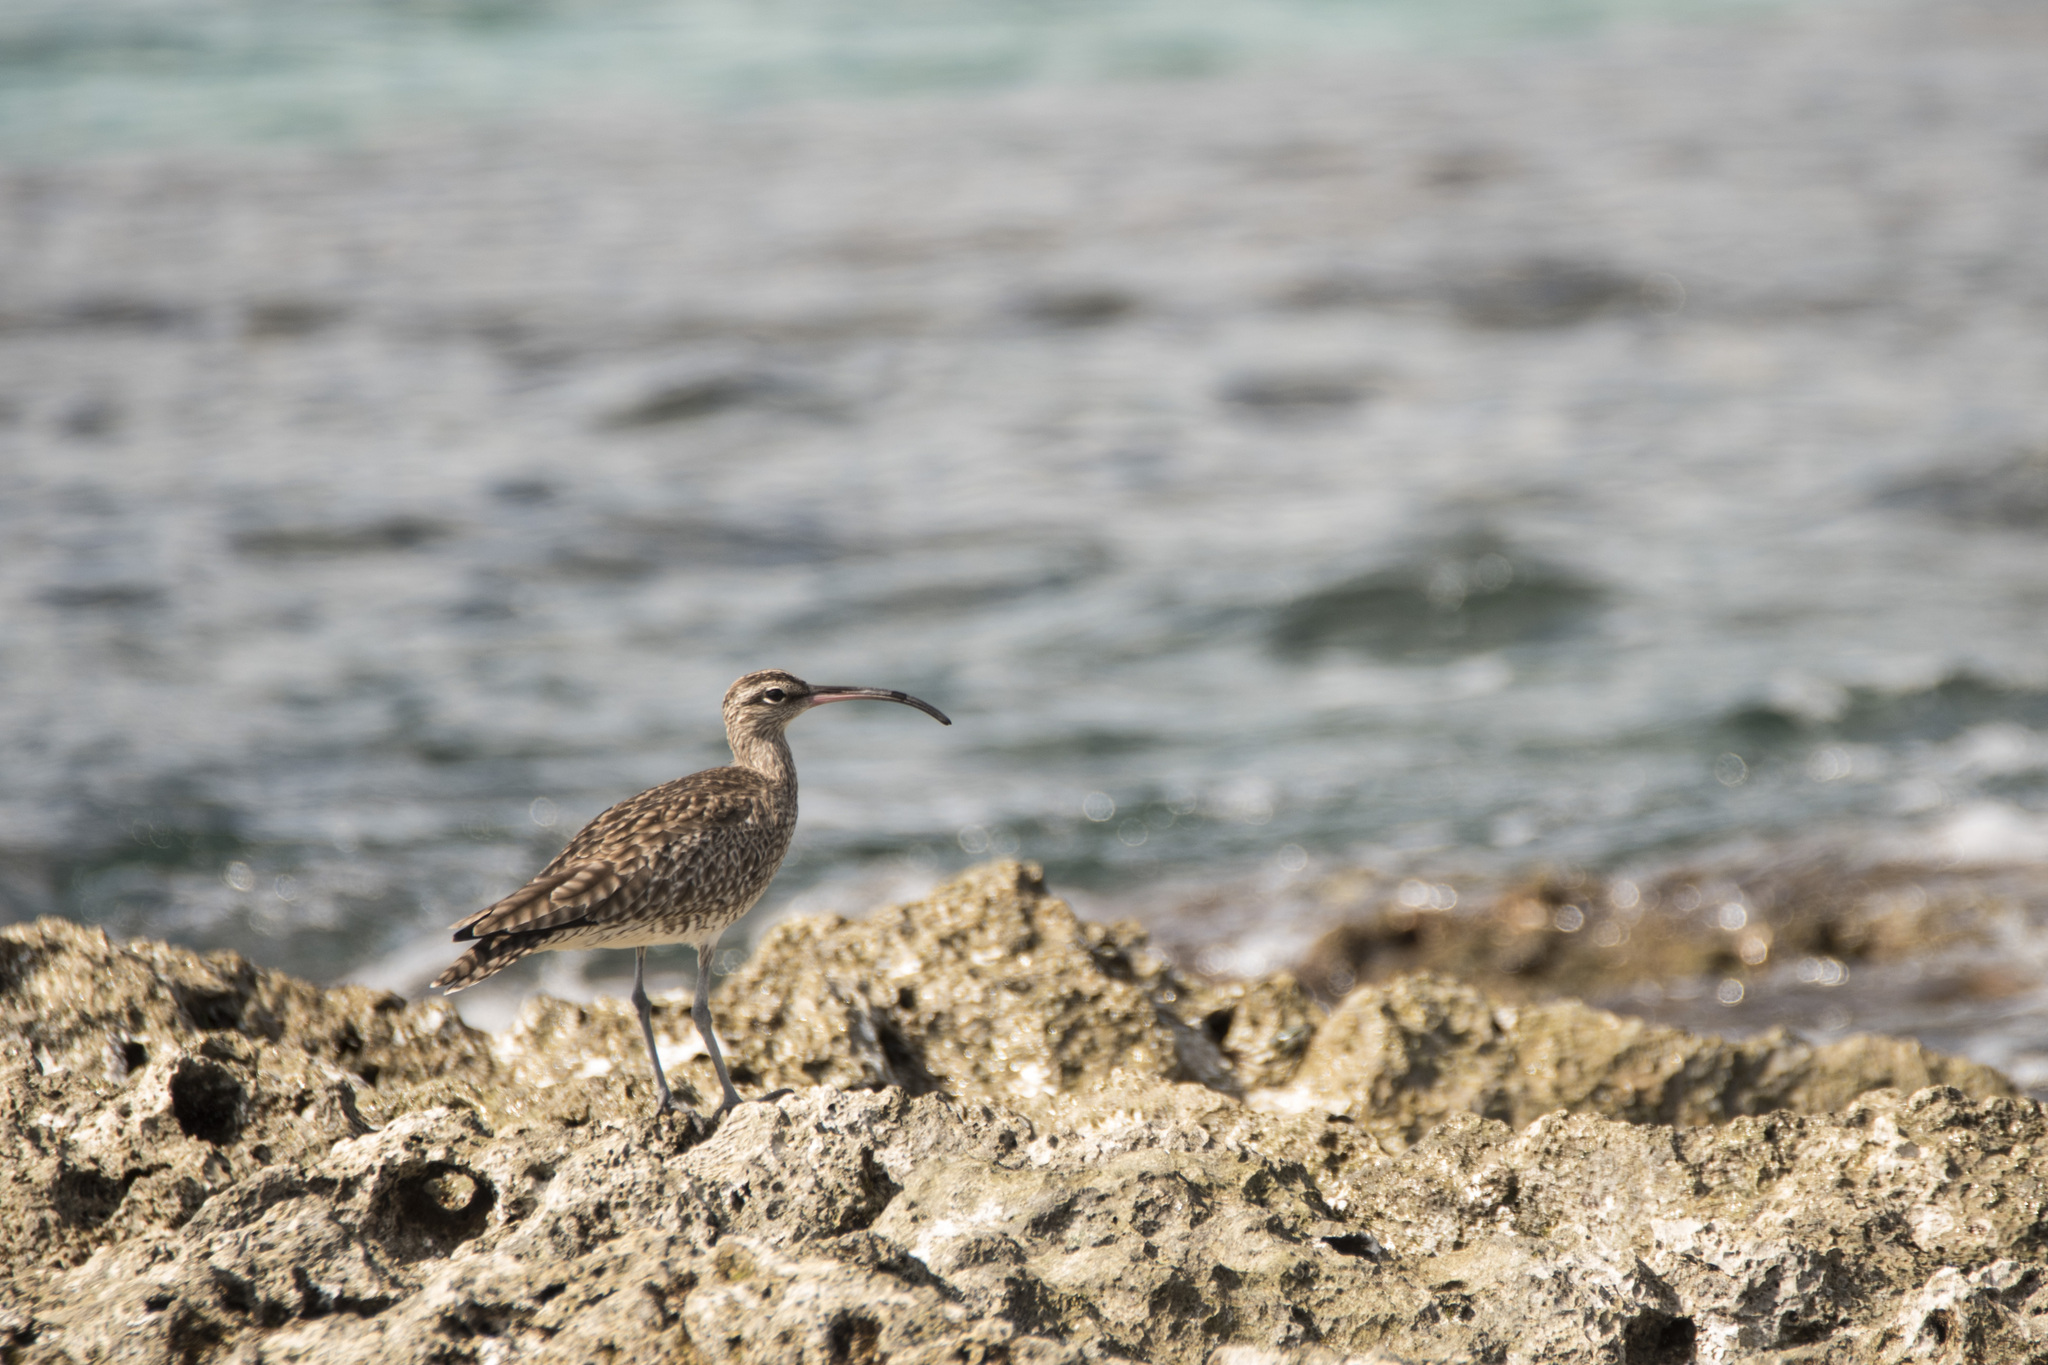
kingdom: Animalia
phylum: Chordata
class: Aves
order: Charadriiformes
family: Scolopacidae
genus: Numenius
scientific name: Numenius phaeopus
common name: Whimbrel
